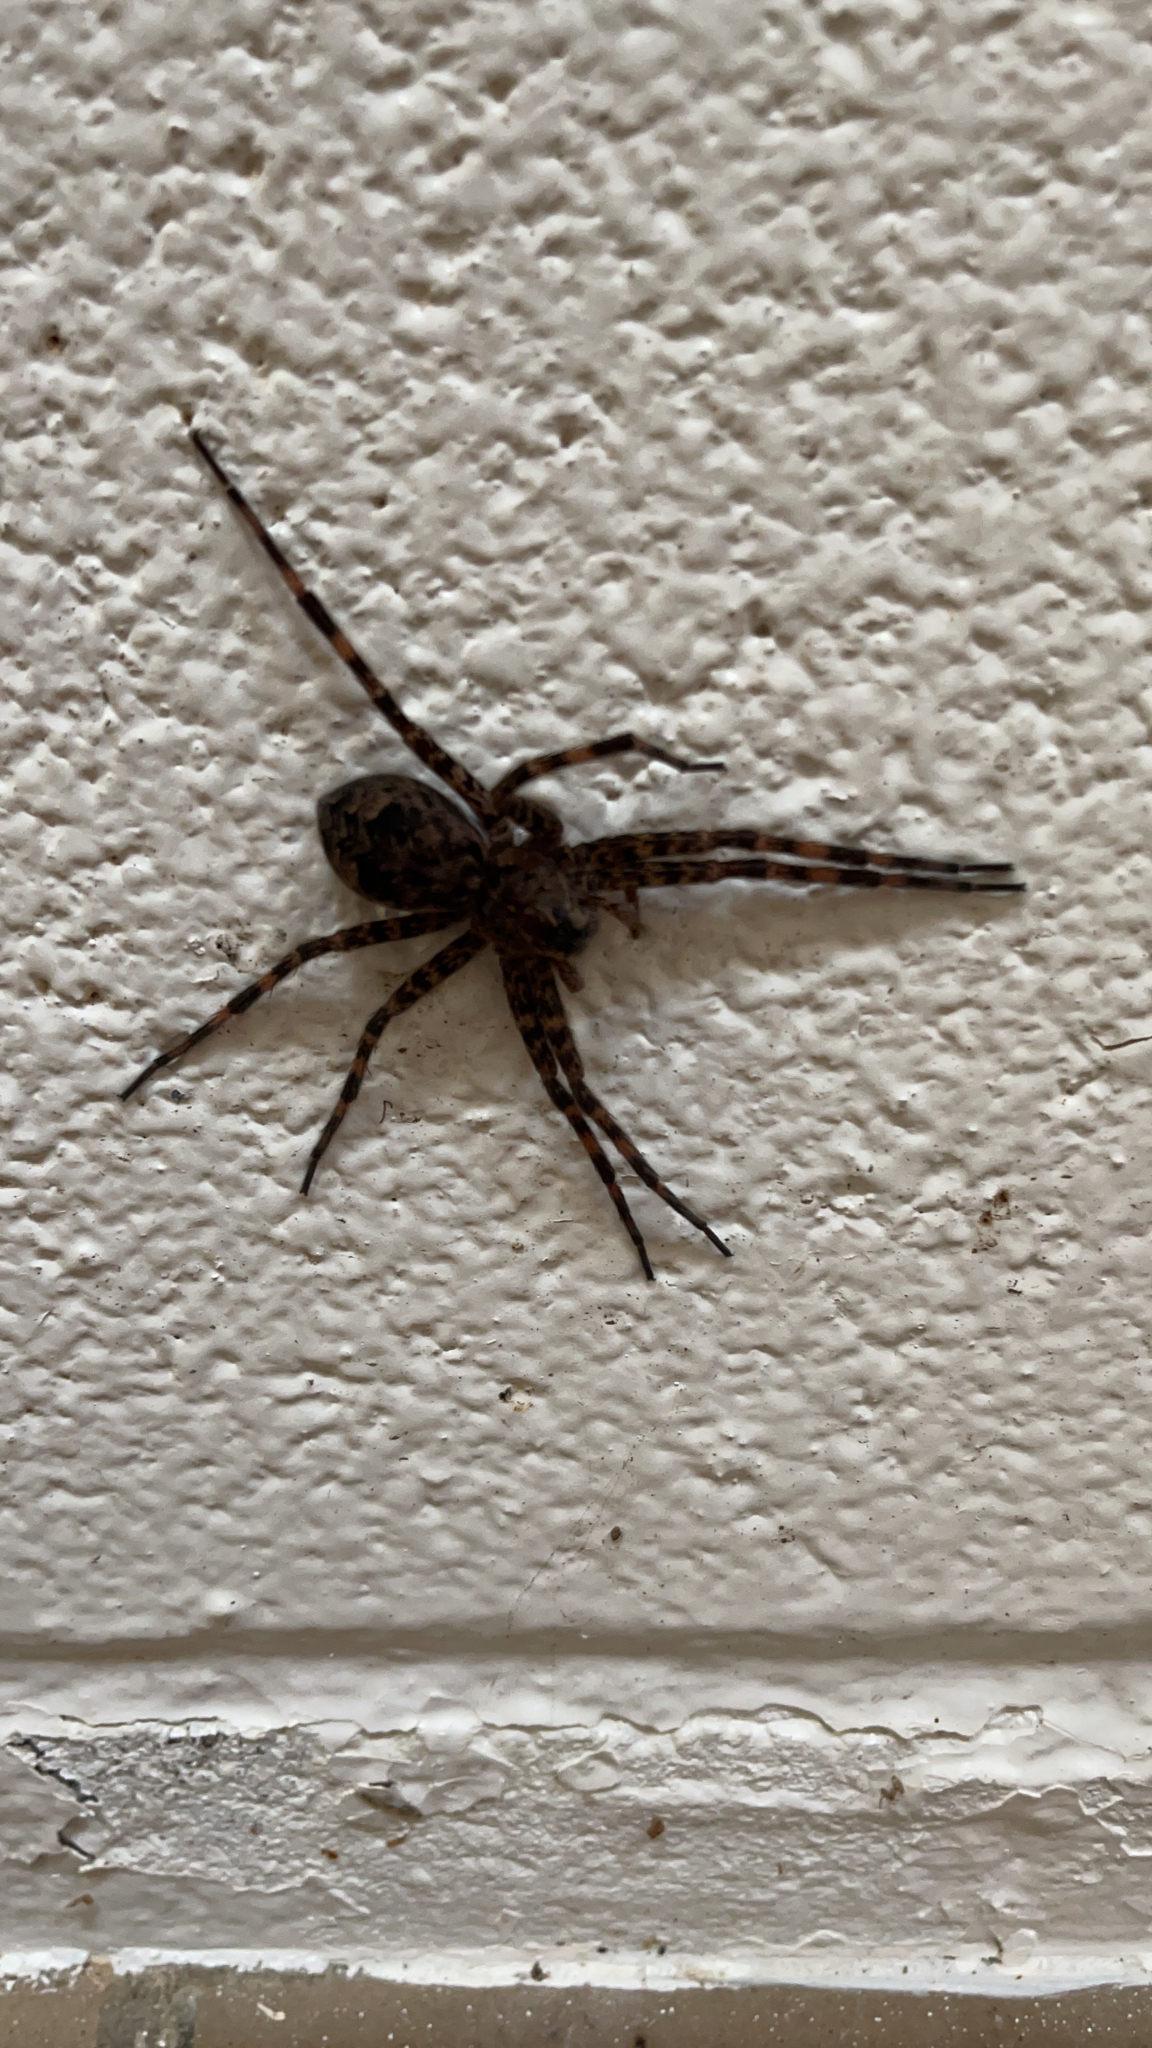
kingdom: Animalia
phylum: Arthropoda
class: Arachnida
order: Araneae
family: Pisauridae
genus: Dolomedes
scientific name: Dolomedes tenebrosus
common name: Dark fishing spider
